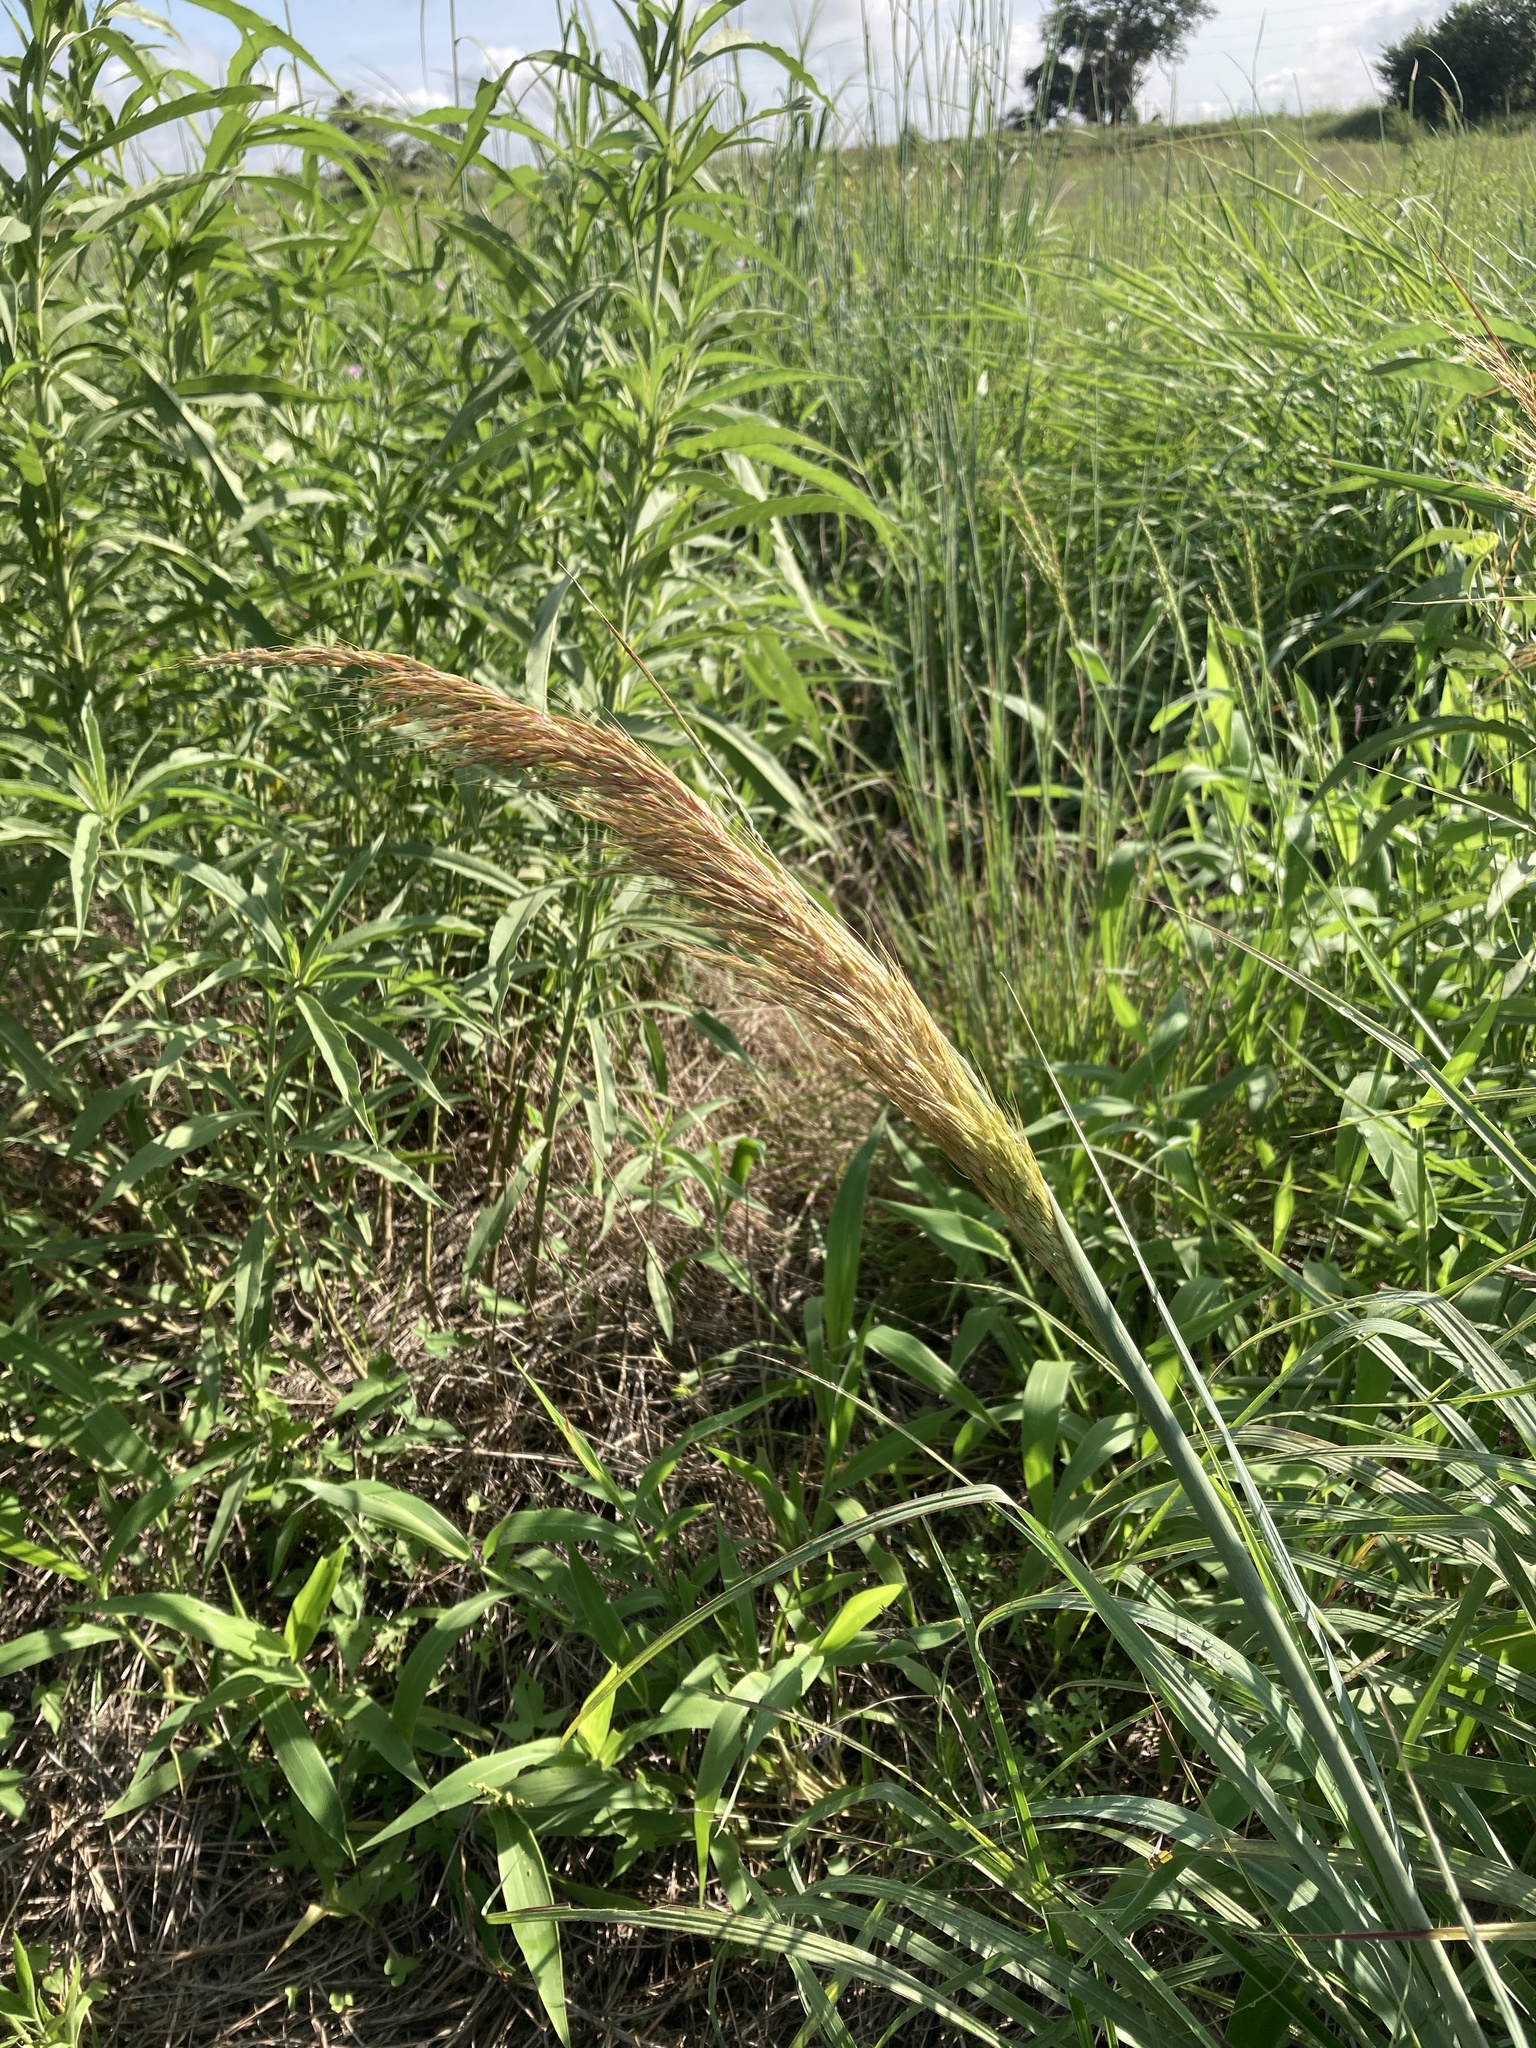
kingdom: Plantae
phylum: Tracheophyta
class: Liliopsida
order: Poales
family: Poaceae
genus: Sorghastrum
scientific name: Sorghastrum nutans
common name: Indian grass
